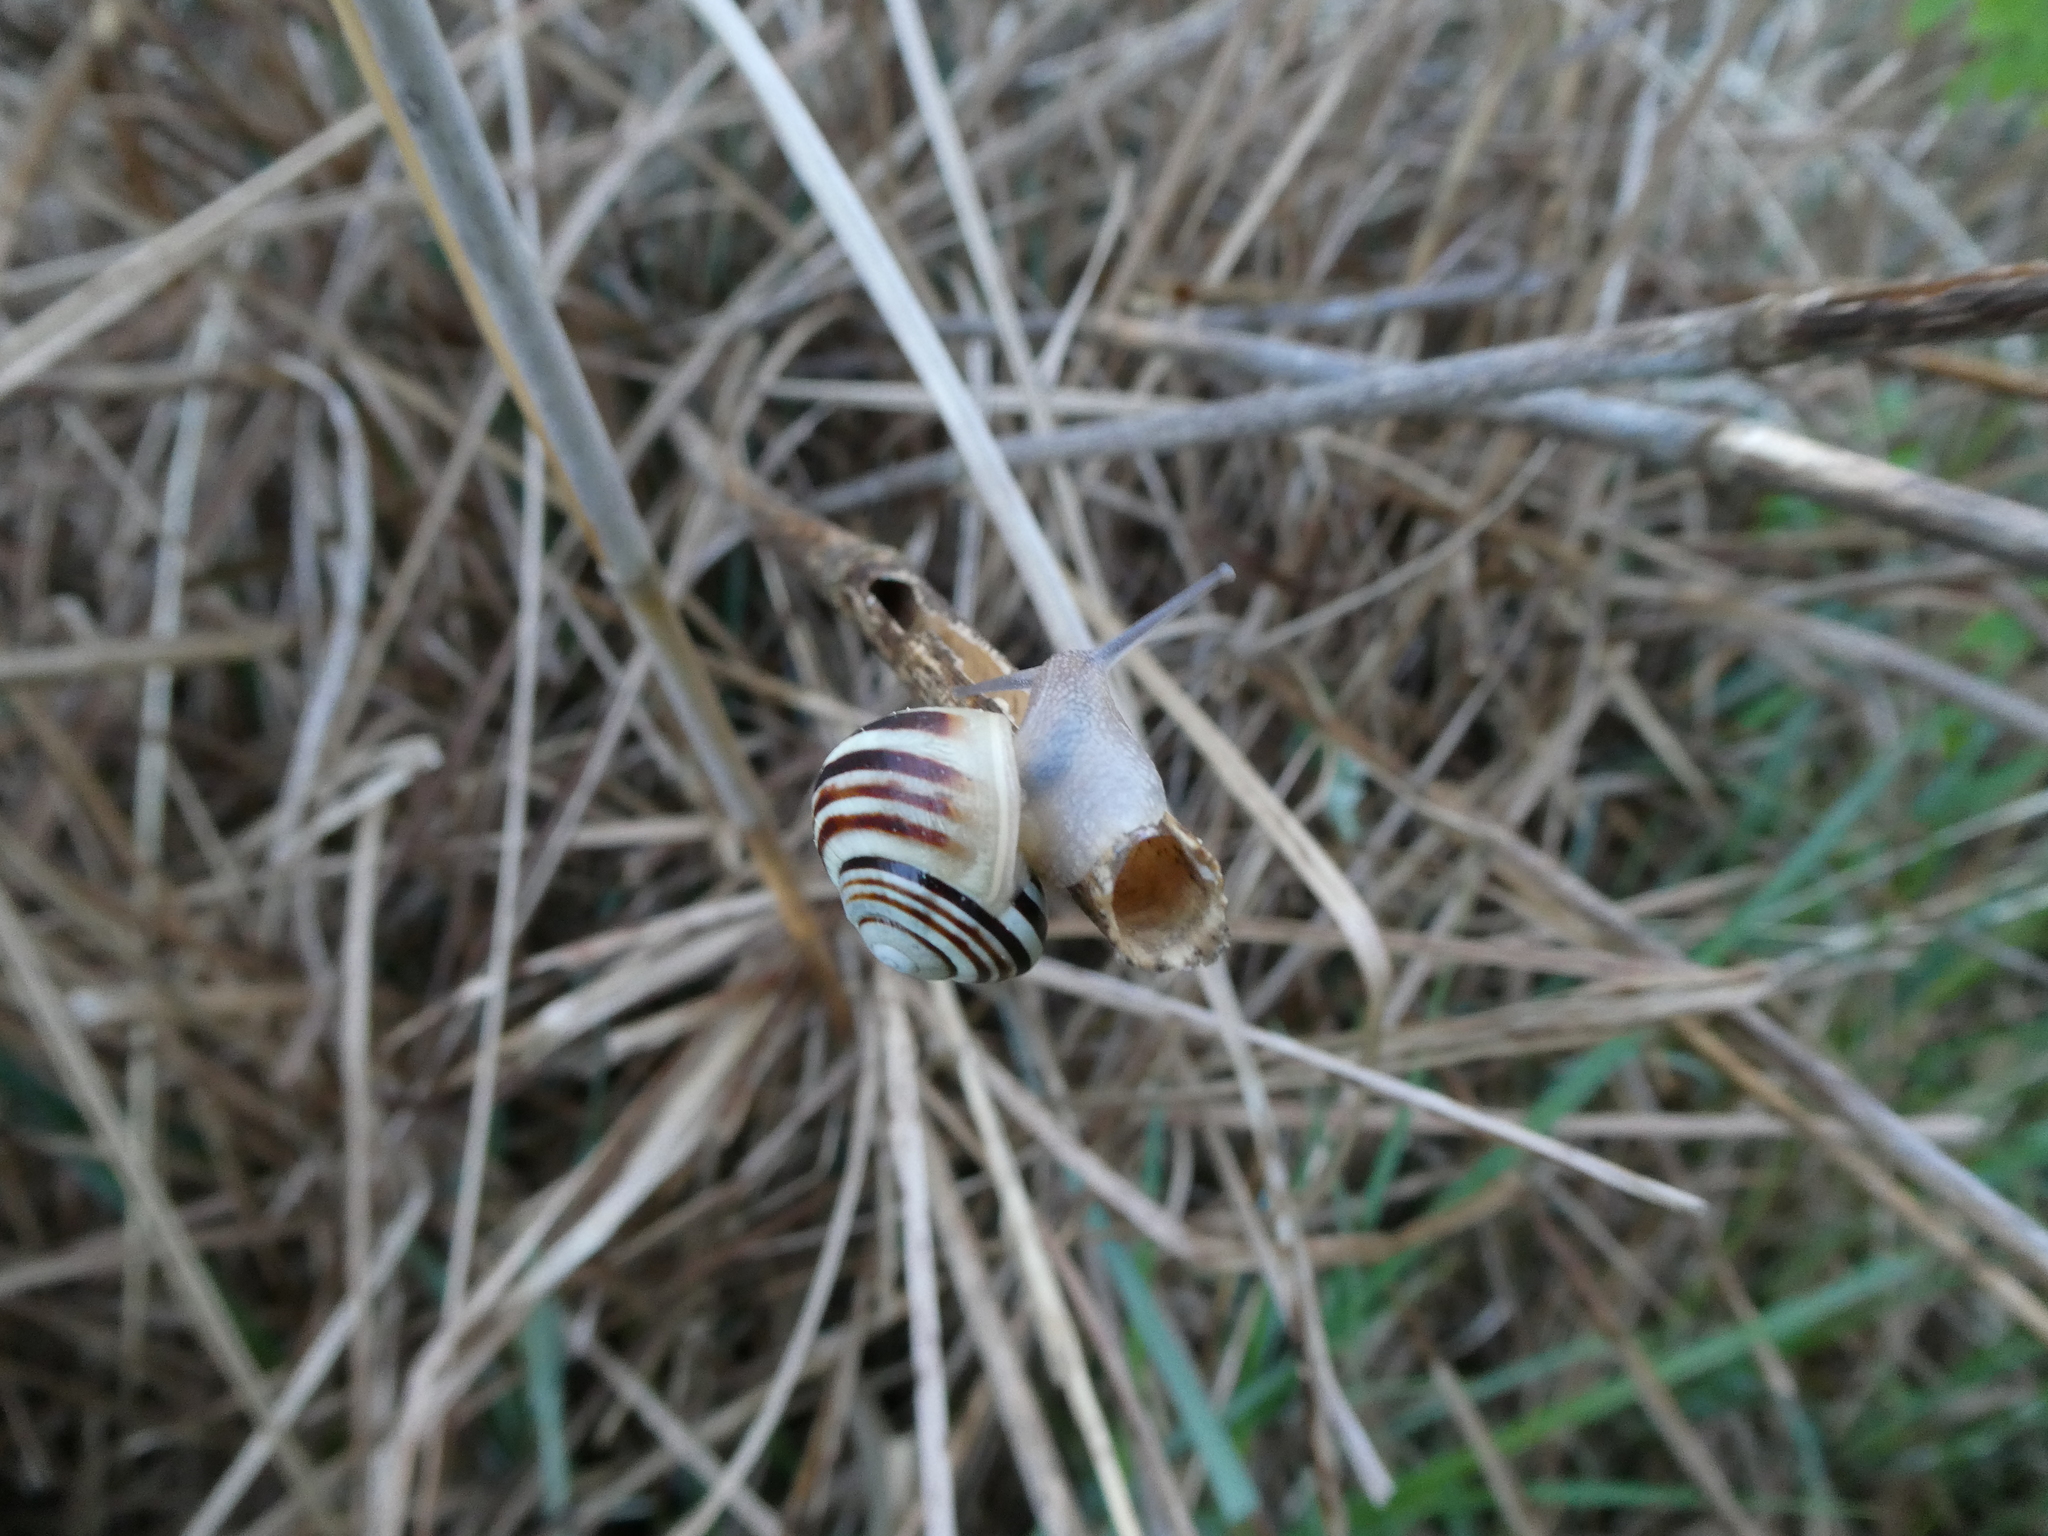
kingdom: Animalia
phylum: Mollusca
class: Gastropoda
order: Stylommatophora
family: Helicidae
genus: Cepaea
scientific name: Cepaea hortensis
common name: White-lip gardensnail
